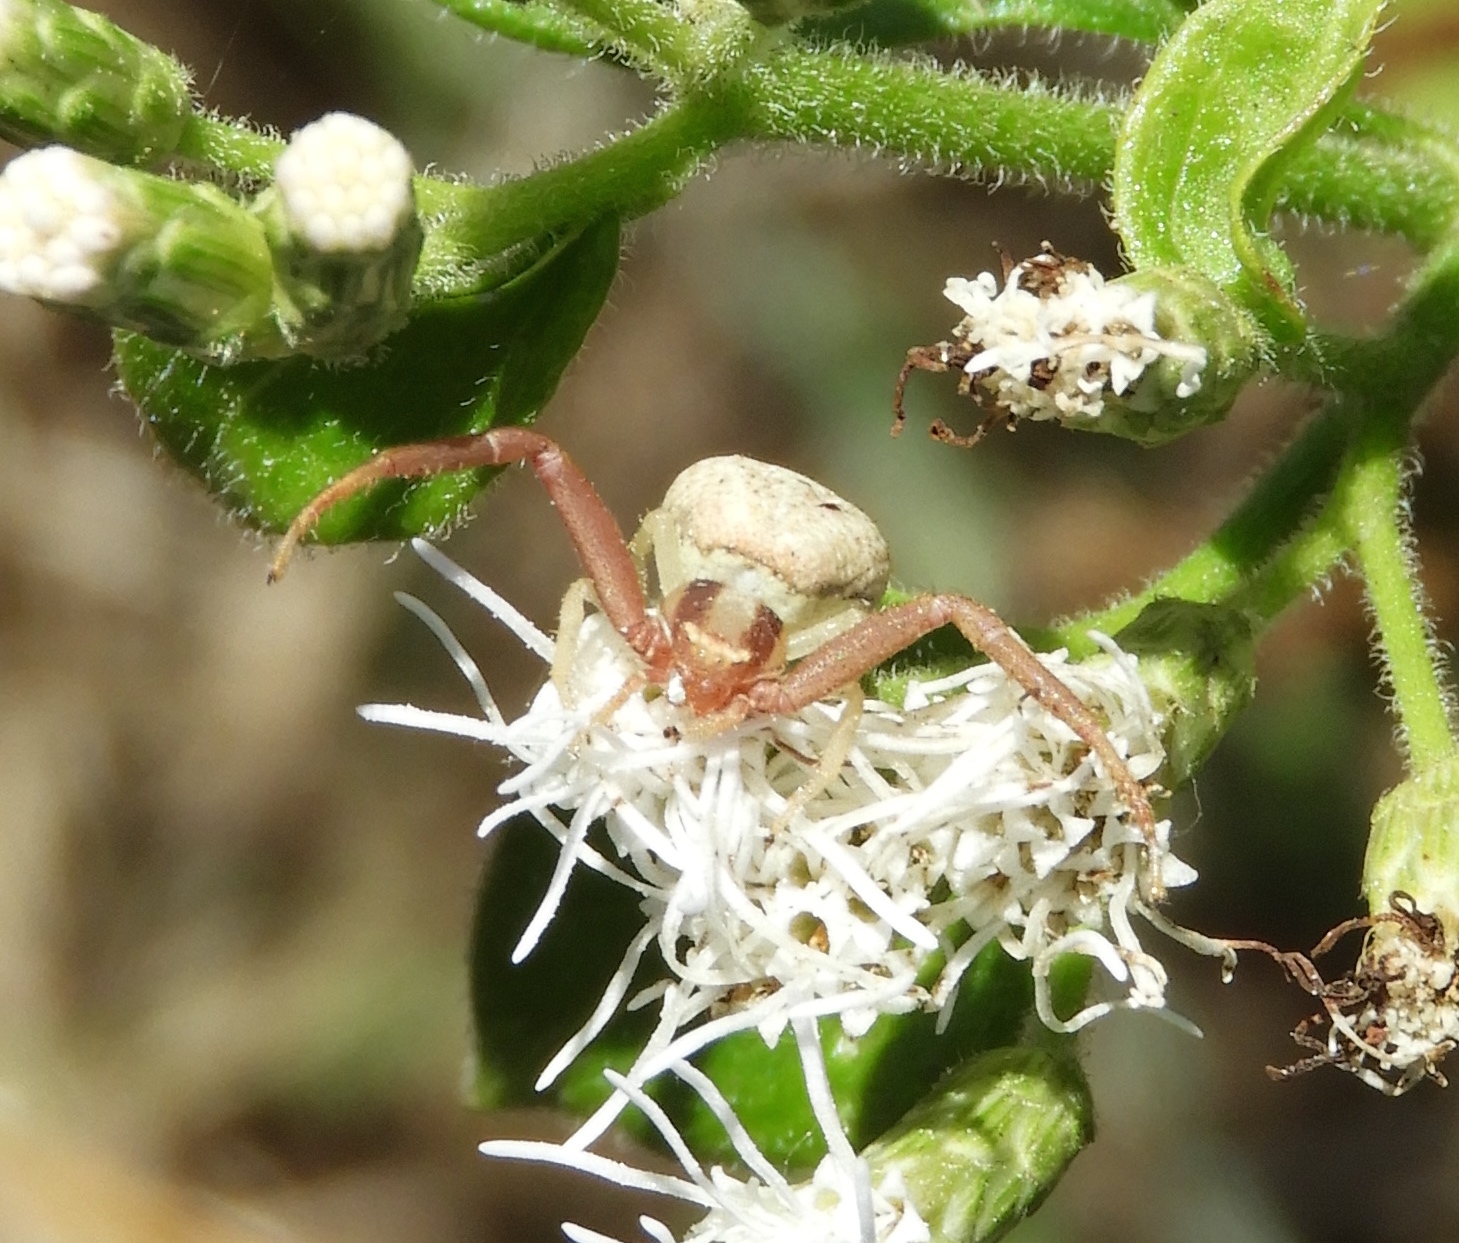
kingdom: Animalia
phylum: Arthropoda
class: Arachnida
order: Araneae
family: Thomisidae
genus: Mecaphesa
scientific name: Mecaphesa
